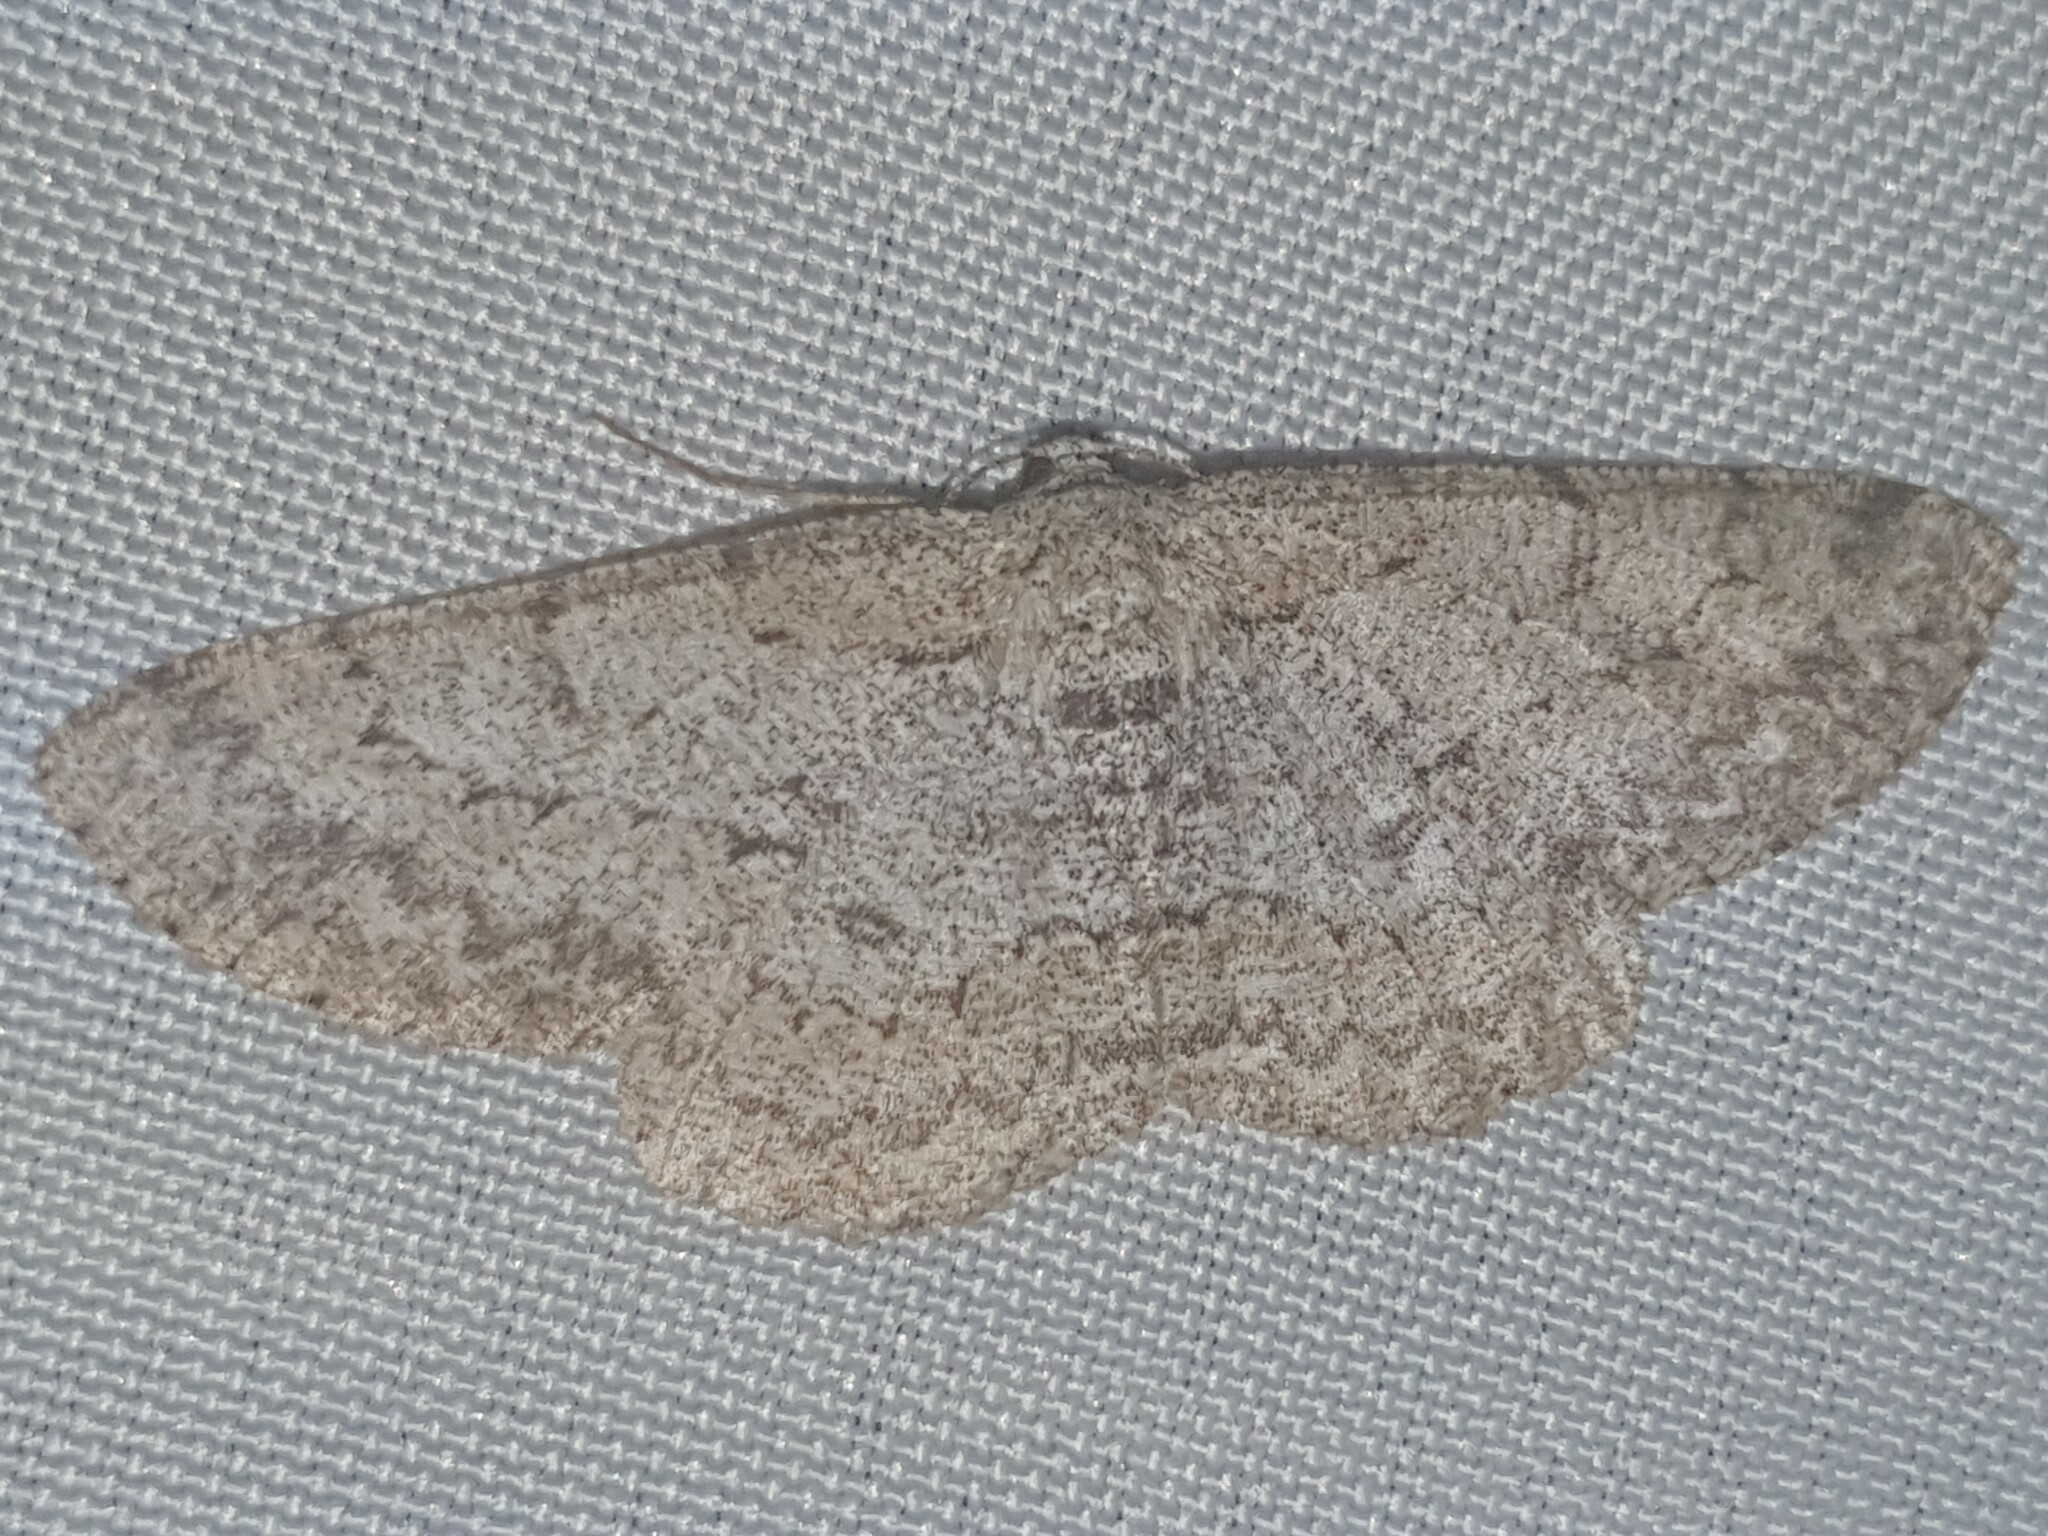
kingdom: Animalia
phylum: Arthropoda
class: Insecta
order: Lepidoptera
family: Geometridae
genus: Hypomecis
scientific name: Hypomecis punctinalis
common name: Pale oak beauty
